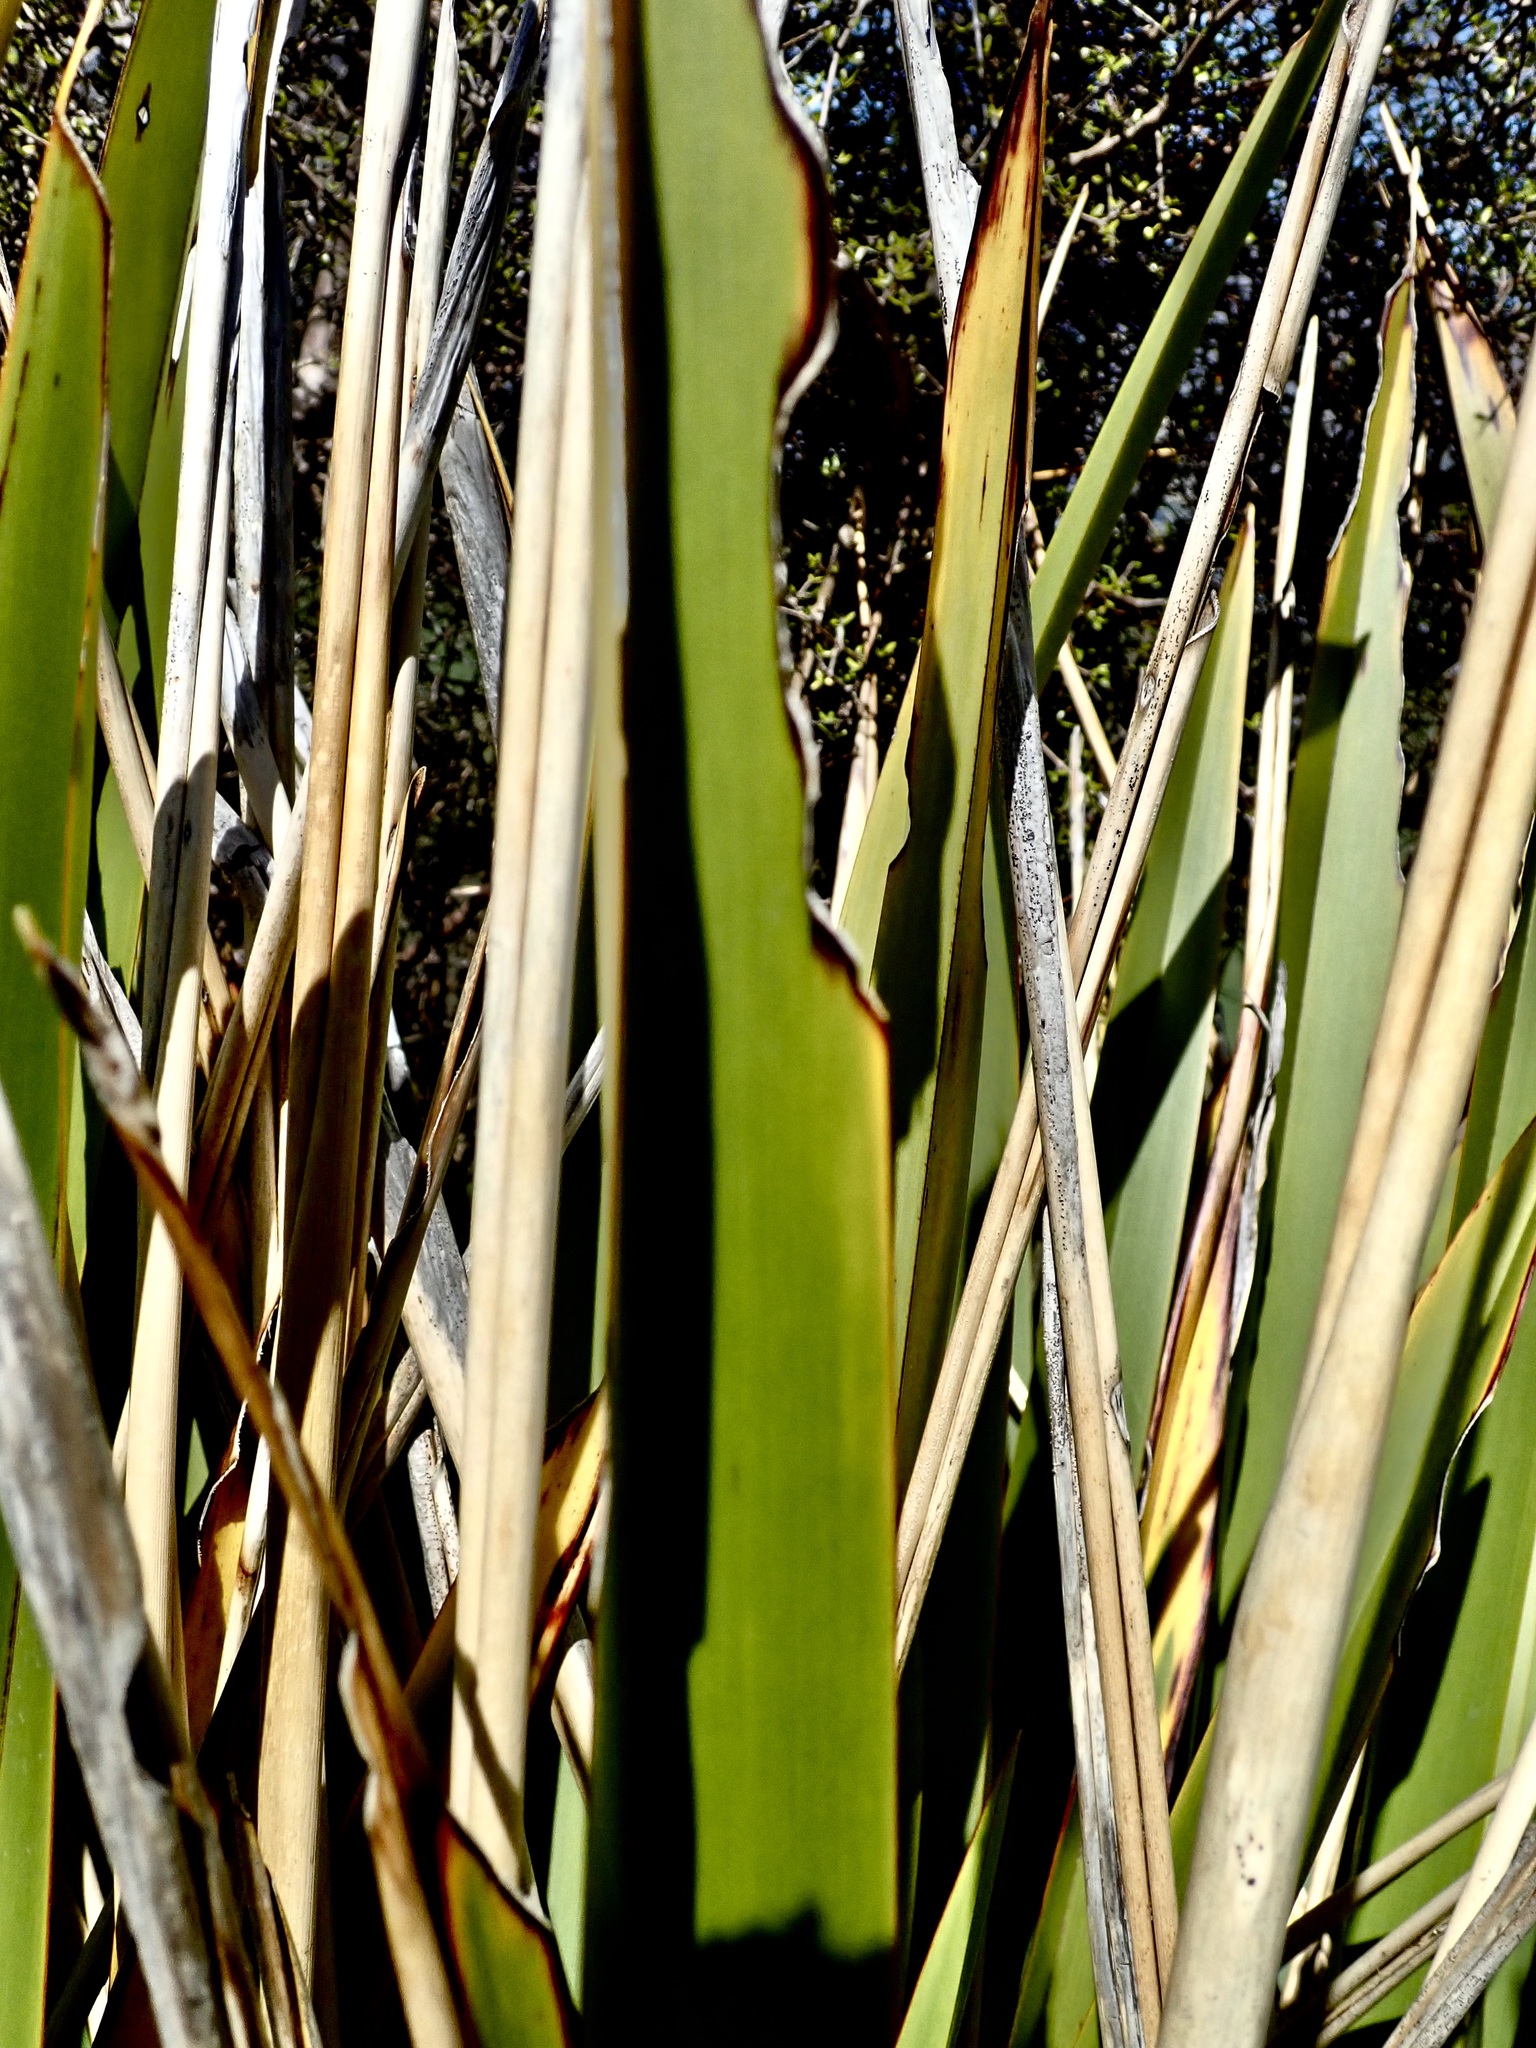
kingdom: Animalia
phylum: Arthropoda
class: Insecta
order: Lepidoptera
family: Noctuidae
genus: Ichneutica
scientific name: Ichneutica
